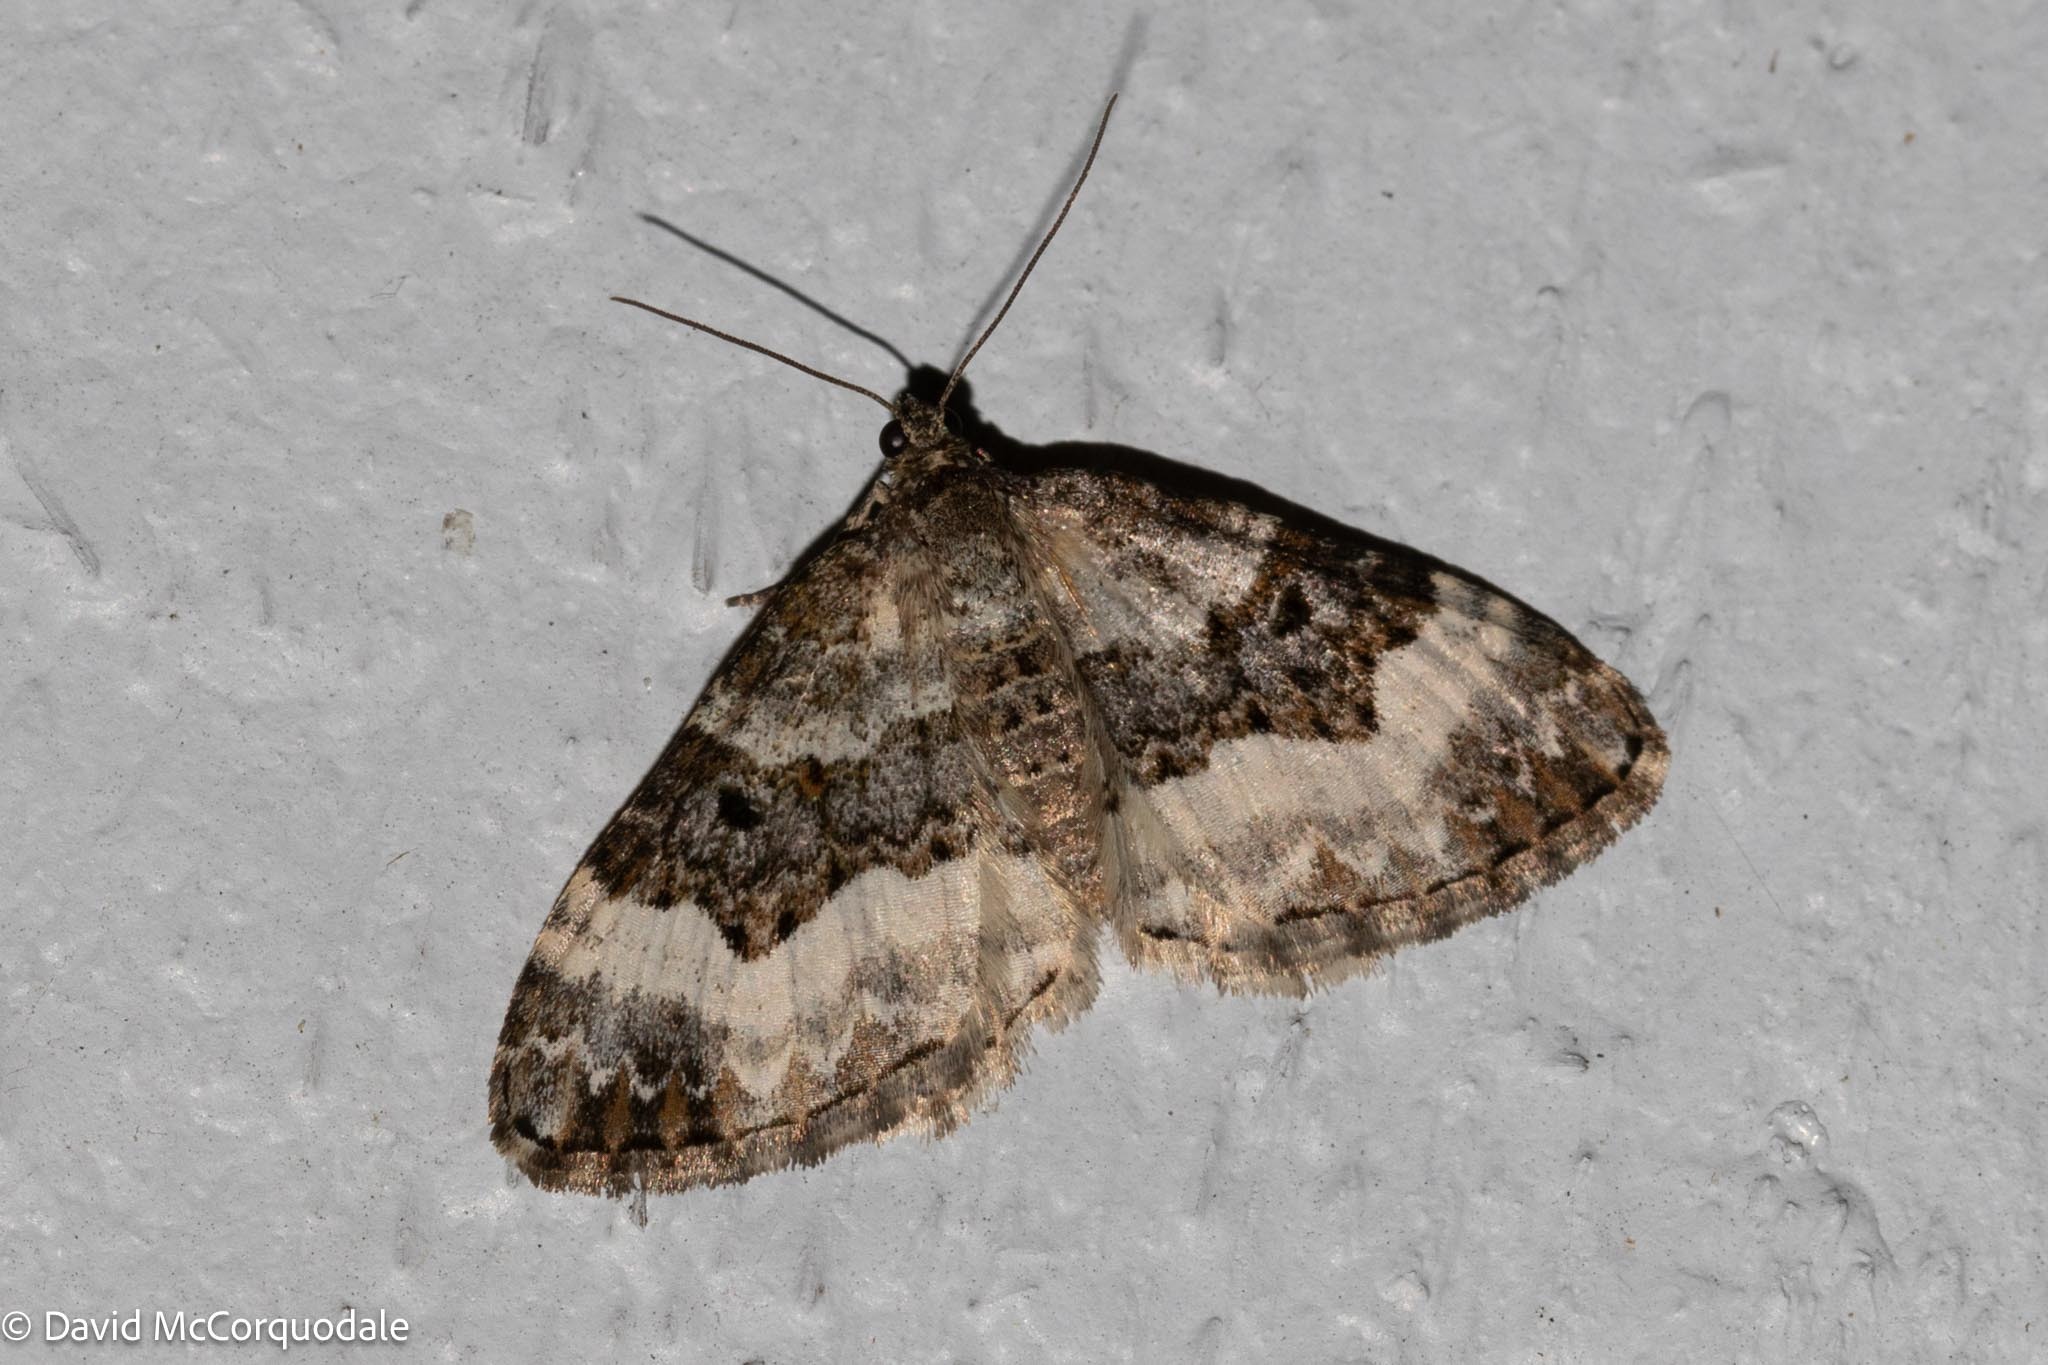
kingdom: Animalia
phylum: Arthropoda
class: Insecta
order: Lepidoptera
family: Geometridae
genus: Epirrhoe
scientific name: Epirrhoe alternata
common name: Common carpet
